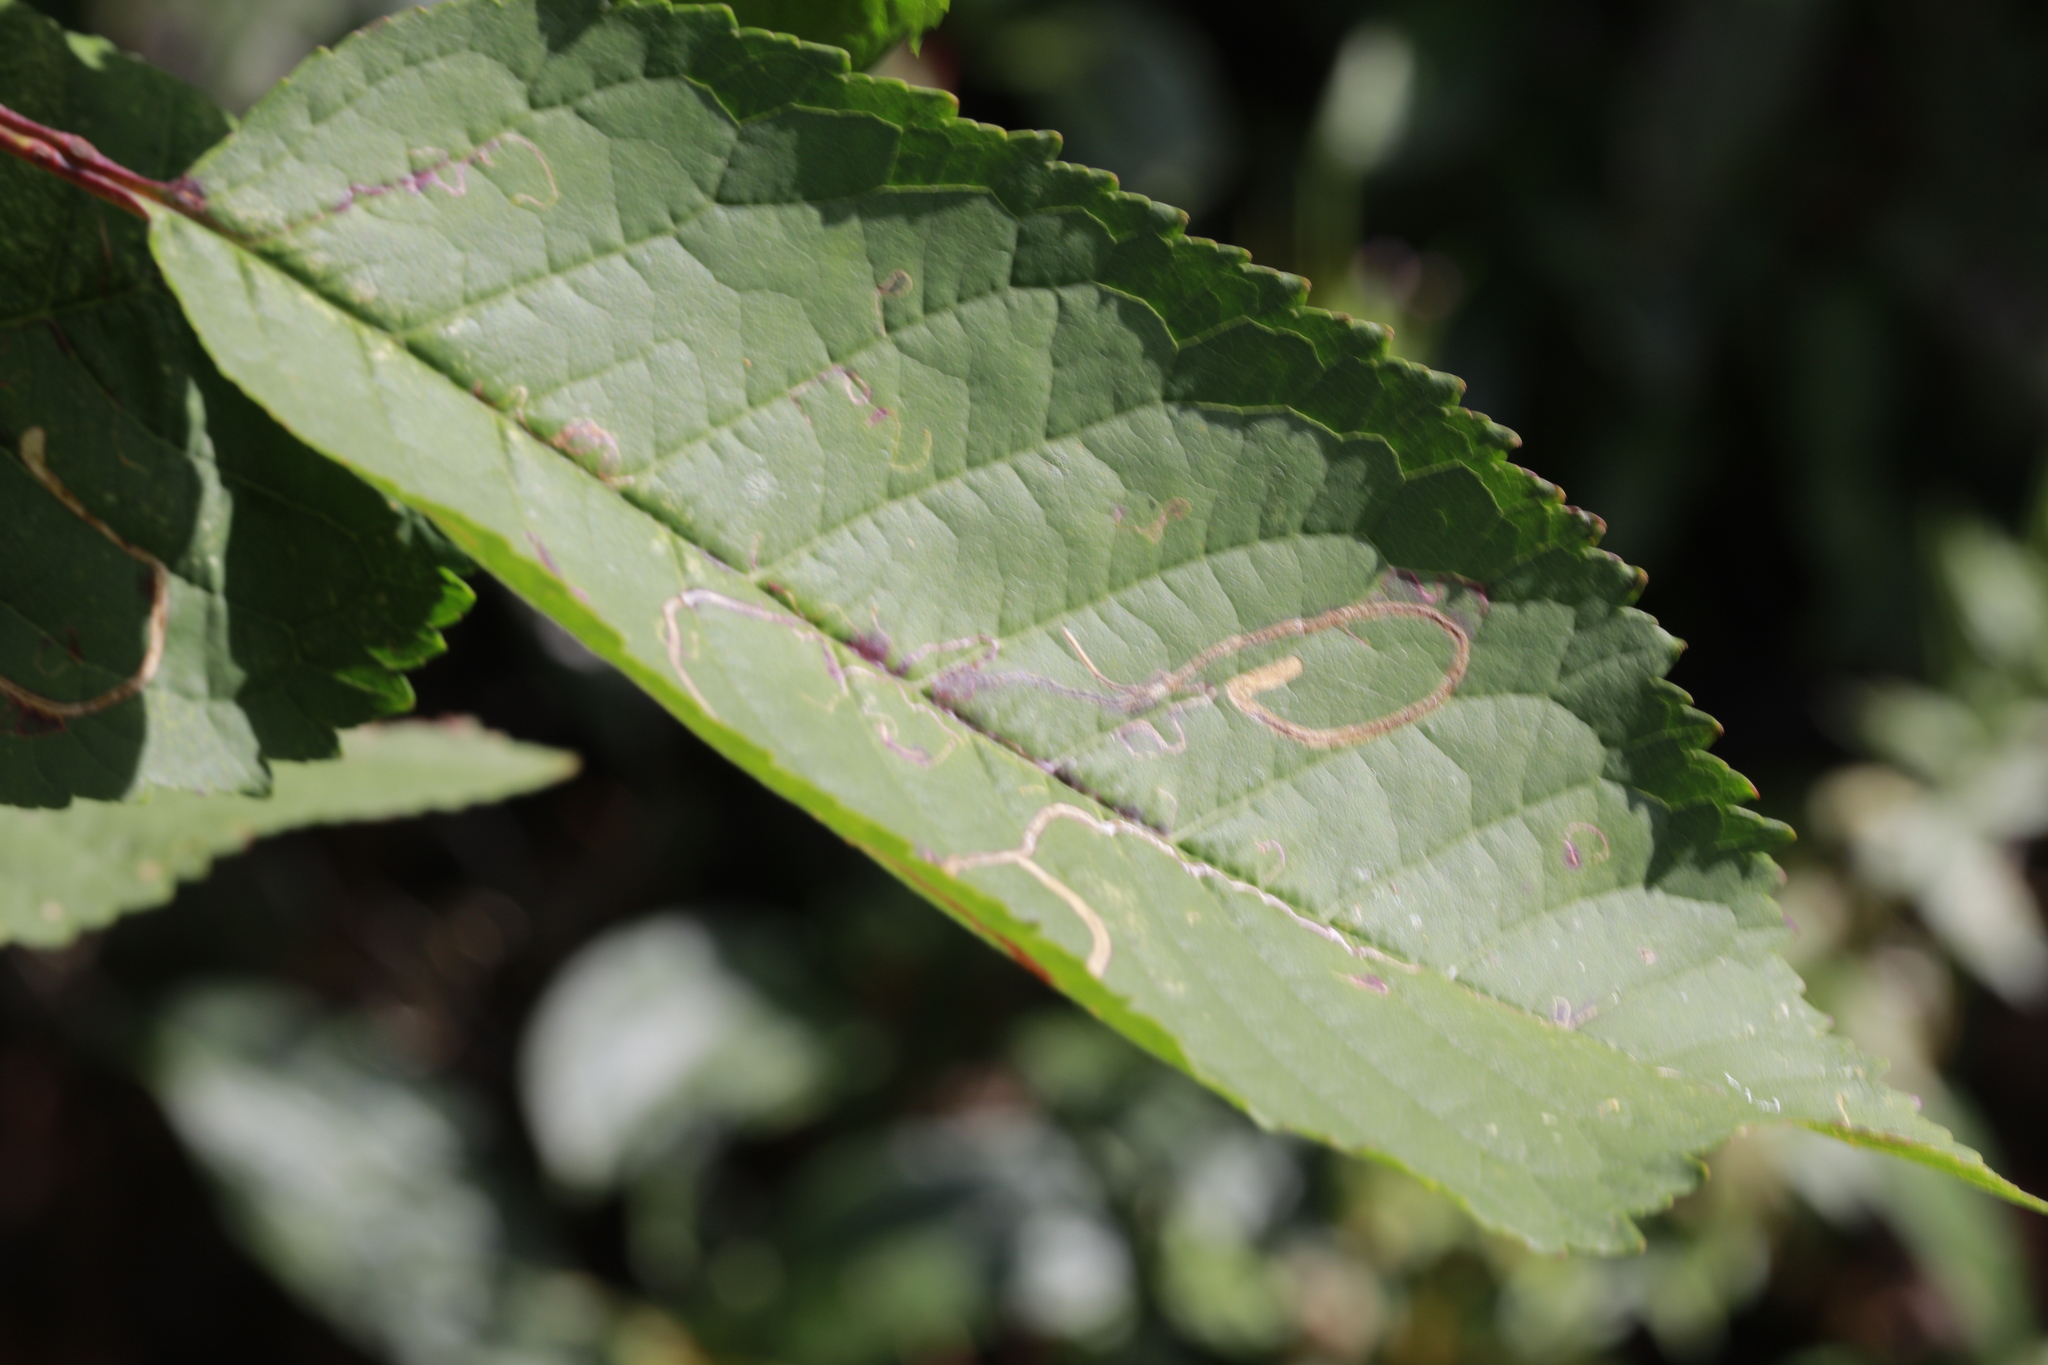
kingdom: Animalia
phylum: Arthropoda
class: Insecta
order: Lepidoptera
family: Lyonetiidae
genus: Lyonetia
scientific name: Lyonetia clerkella
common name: Apple leaf miner
